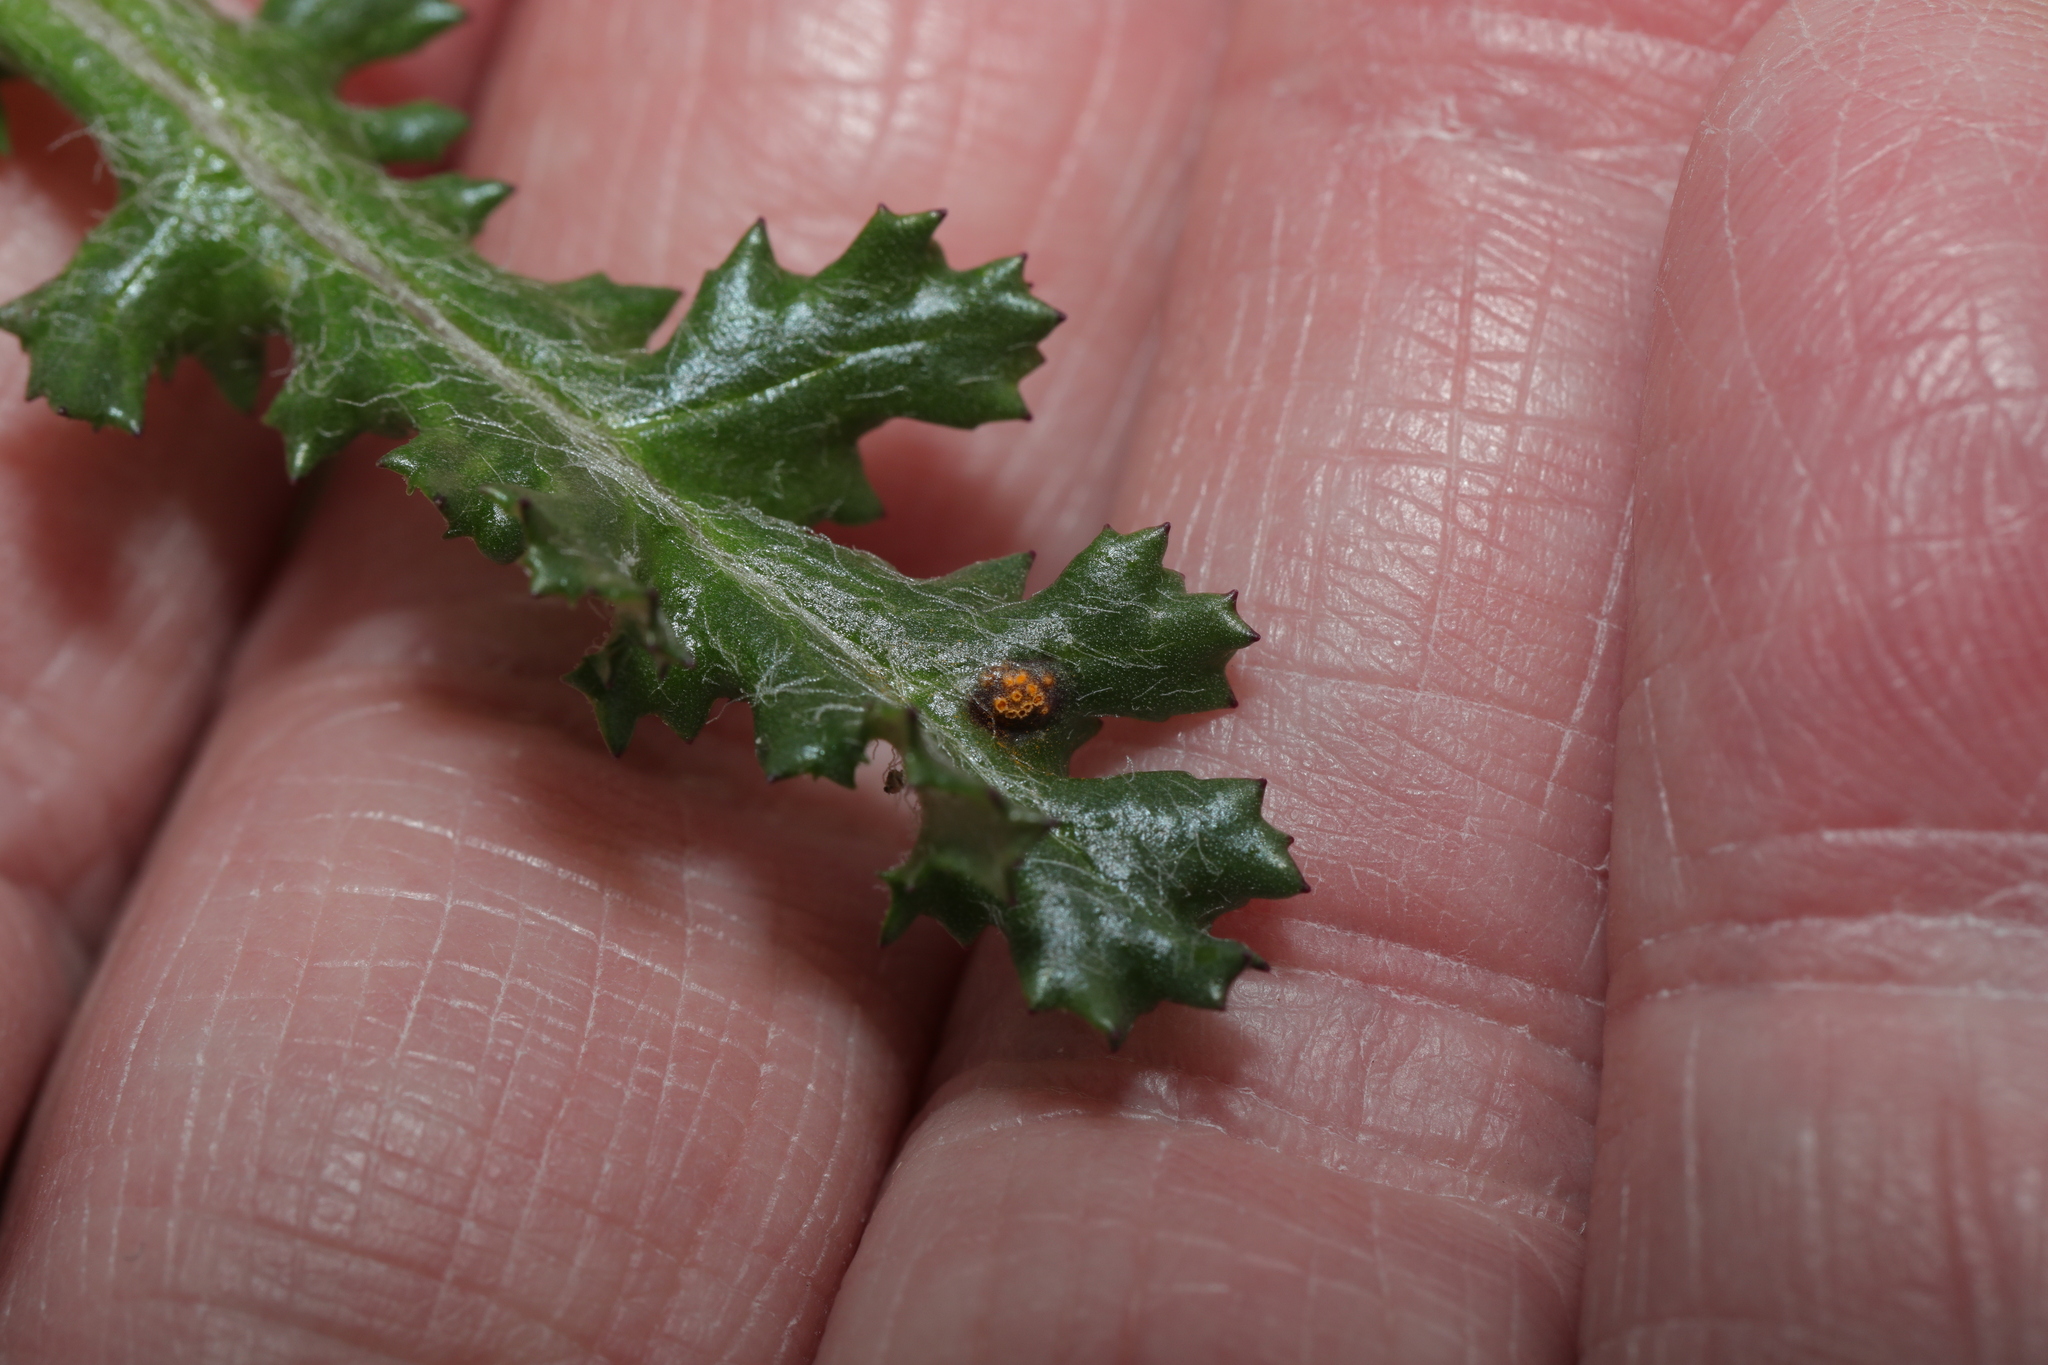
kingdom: Fungi
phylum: Basidiomycota
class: Pucciniomycetes
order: Pucciniales
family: Pucciniaceae
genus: Puccinia
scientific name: Puccinia lagenophorae
